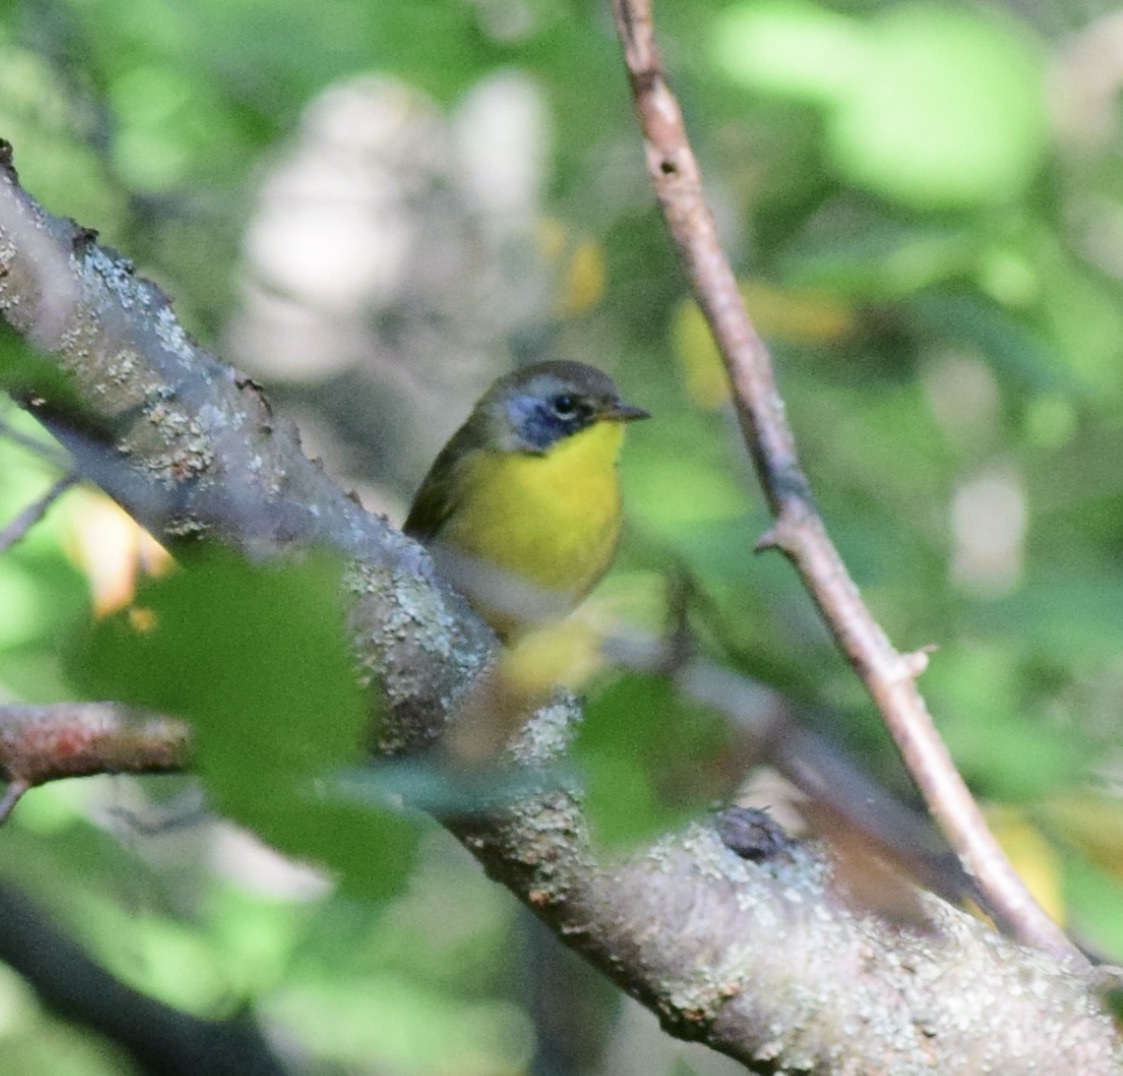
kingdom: Animalia
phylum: Chordata
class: Aves
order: Passeriformes
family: Parulidae
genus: Geothlypis
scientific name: Geothlypis trichas
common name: Common yellowthroat
